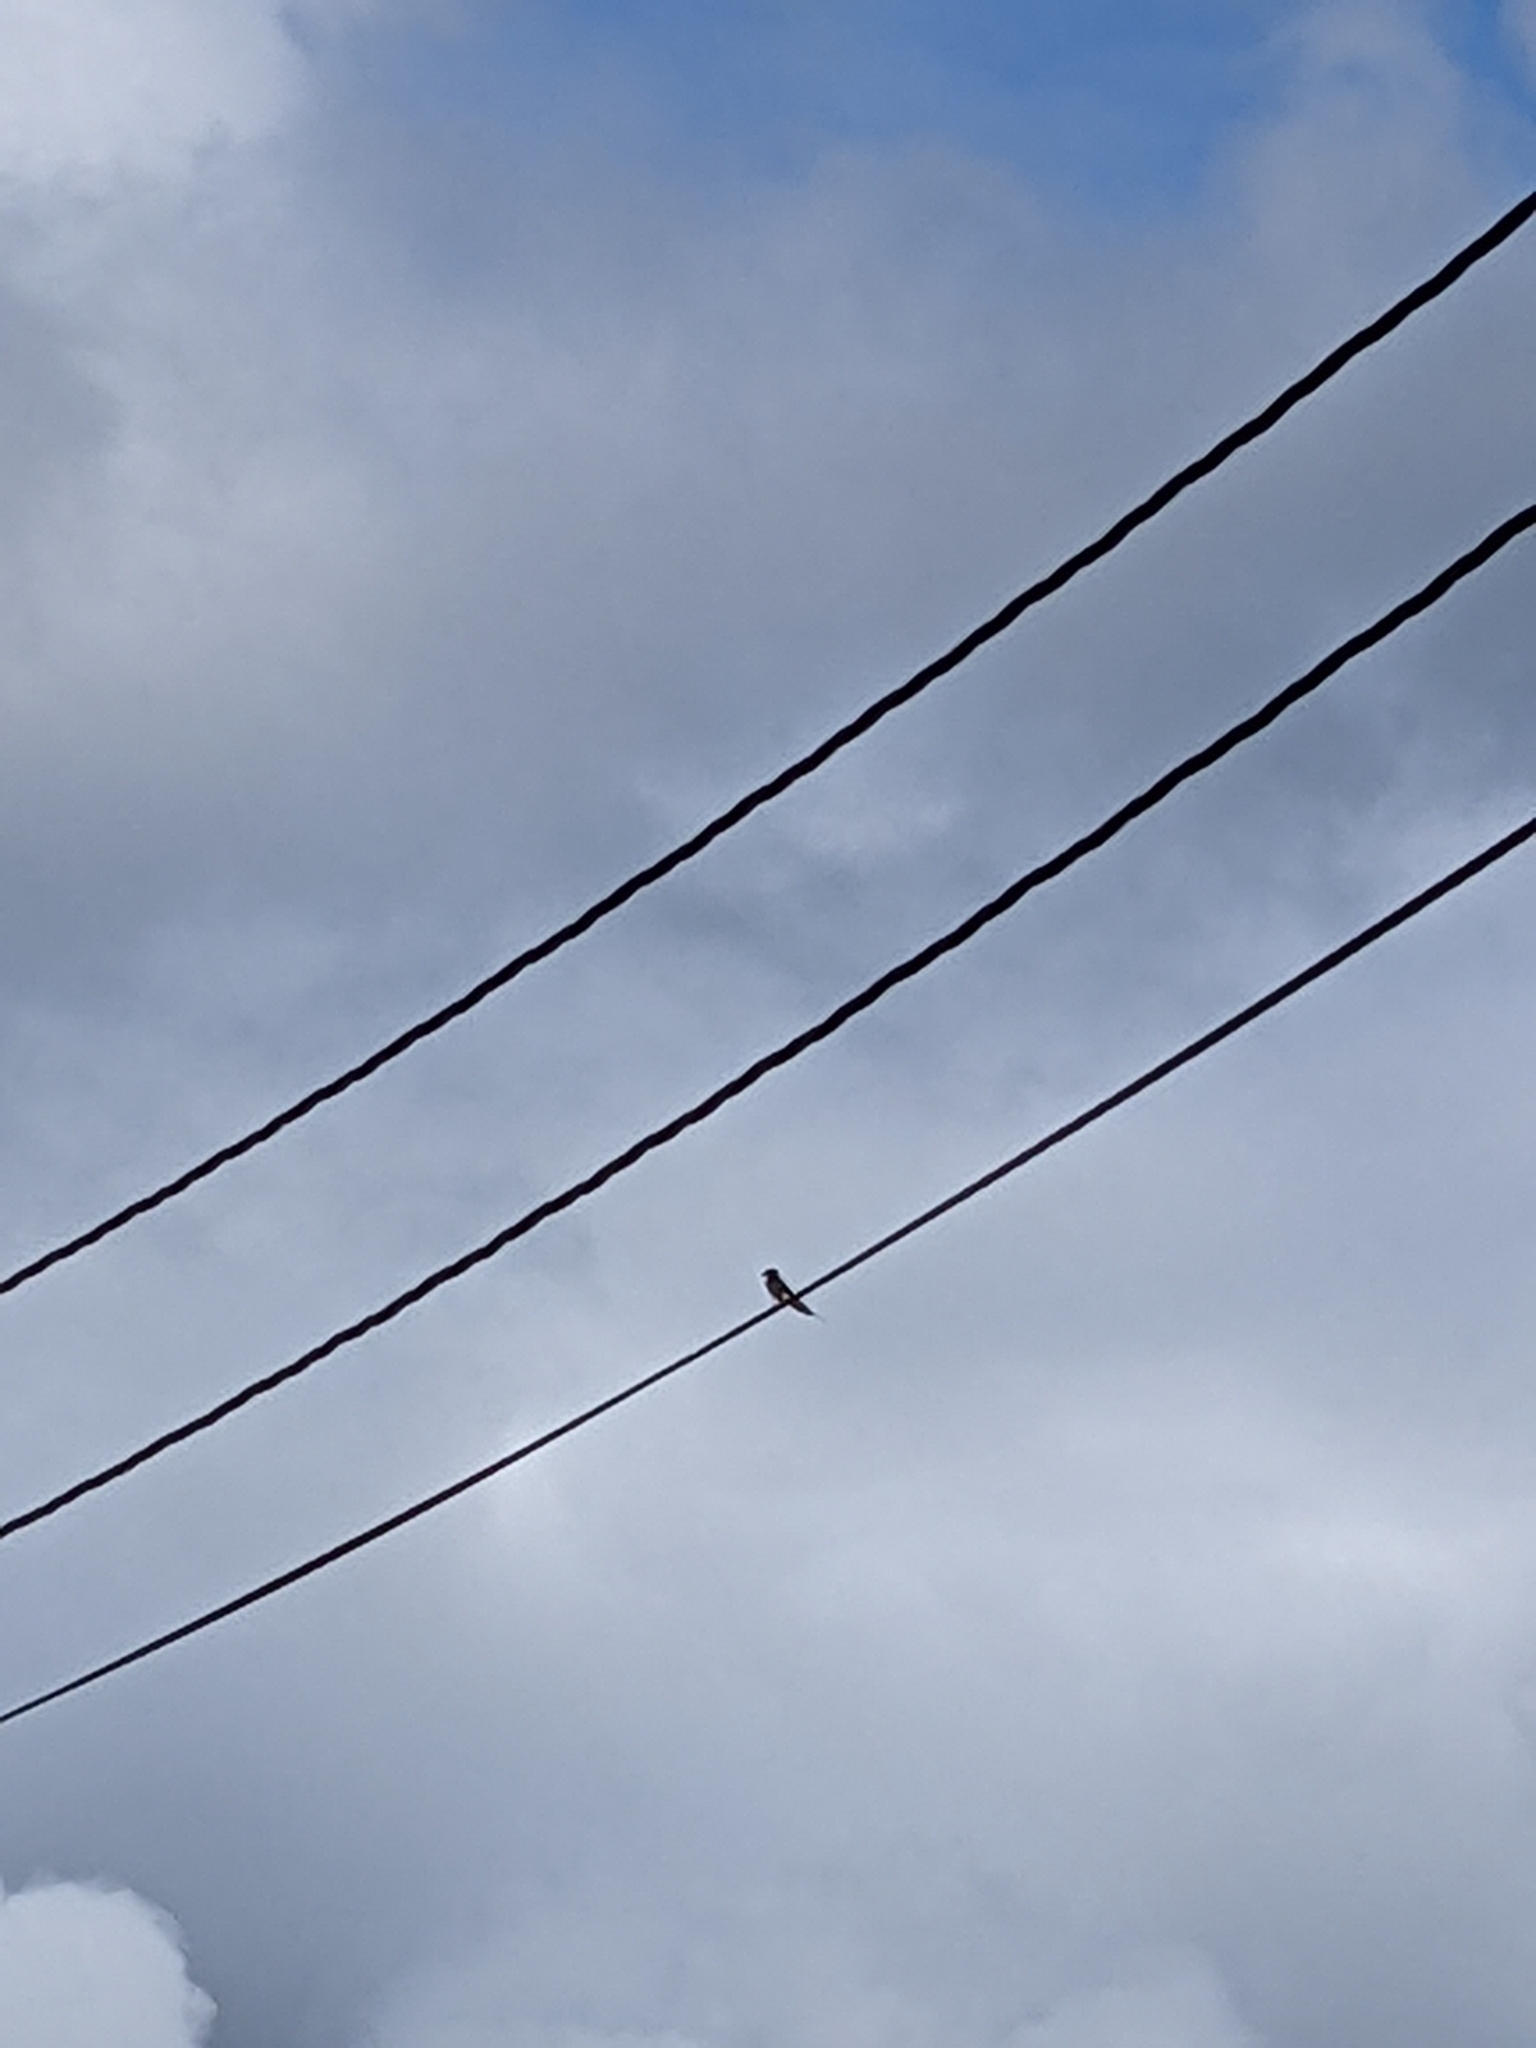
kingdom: Animalia
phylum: Chordata
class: Aves
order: Passeriformes
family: Hirundinidae
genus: Hirundo
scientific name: Hirundo rustica
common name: Barn swallow
